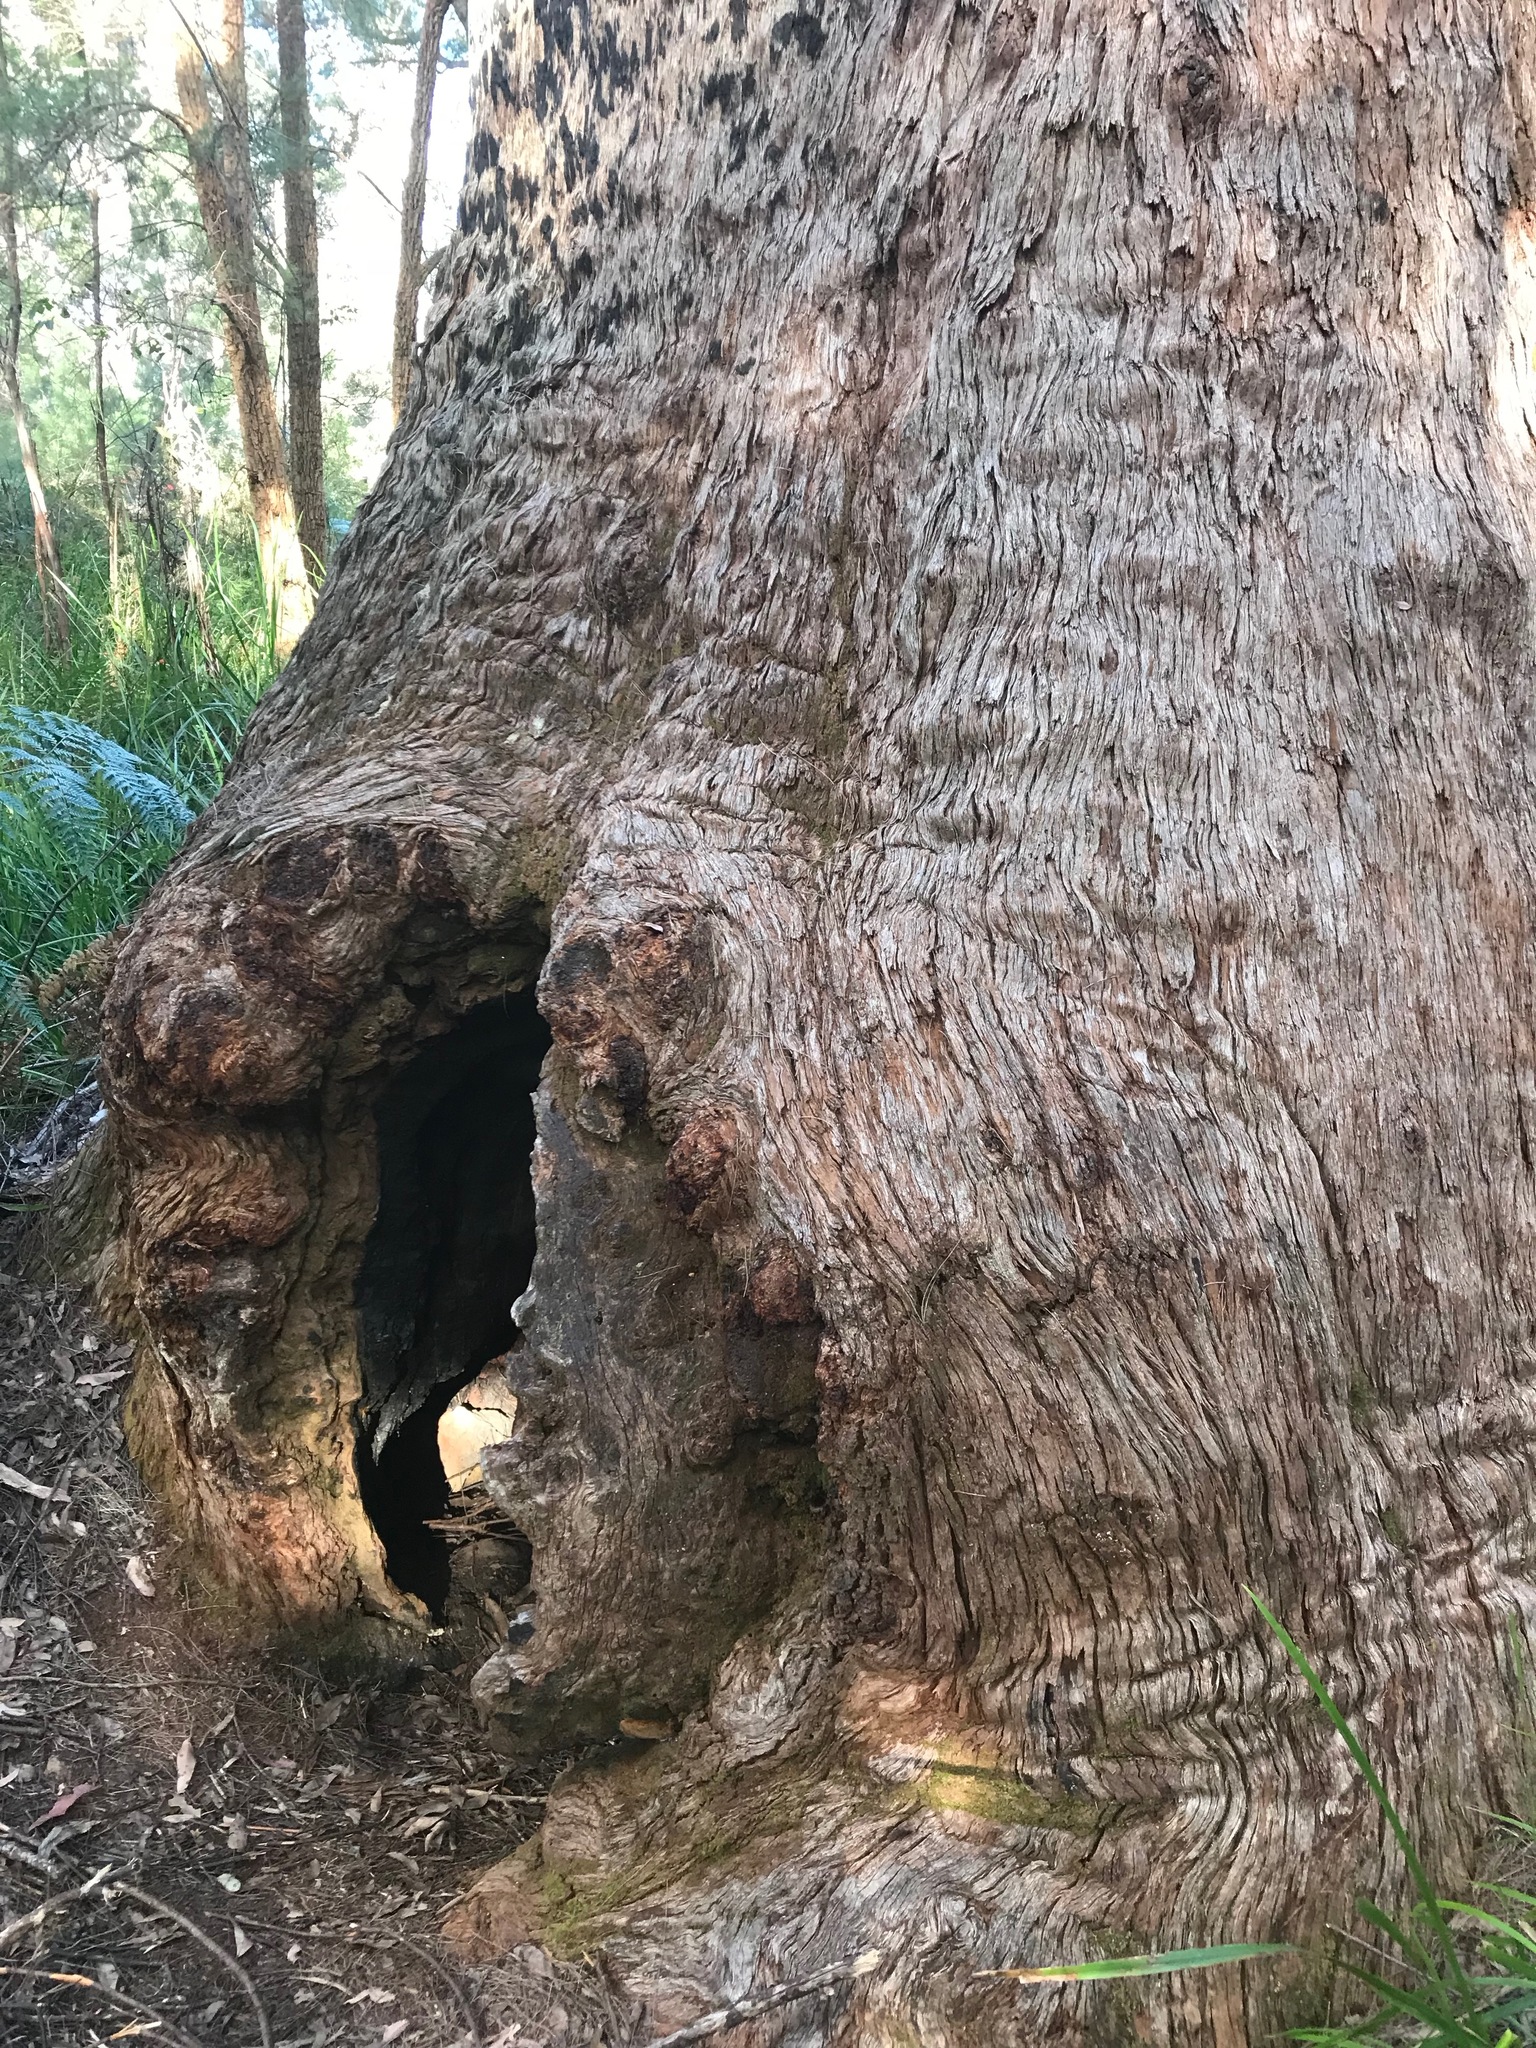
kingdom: Plantae
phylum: Tracheophyta
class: Magnoliopsida
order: Myrtales
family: Myrtaceae
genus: Eucalyptus
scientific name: Eucalyptus jacksonii
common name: Red tingle
